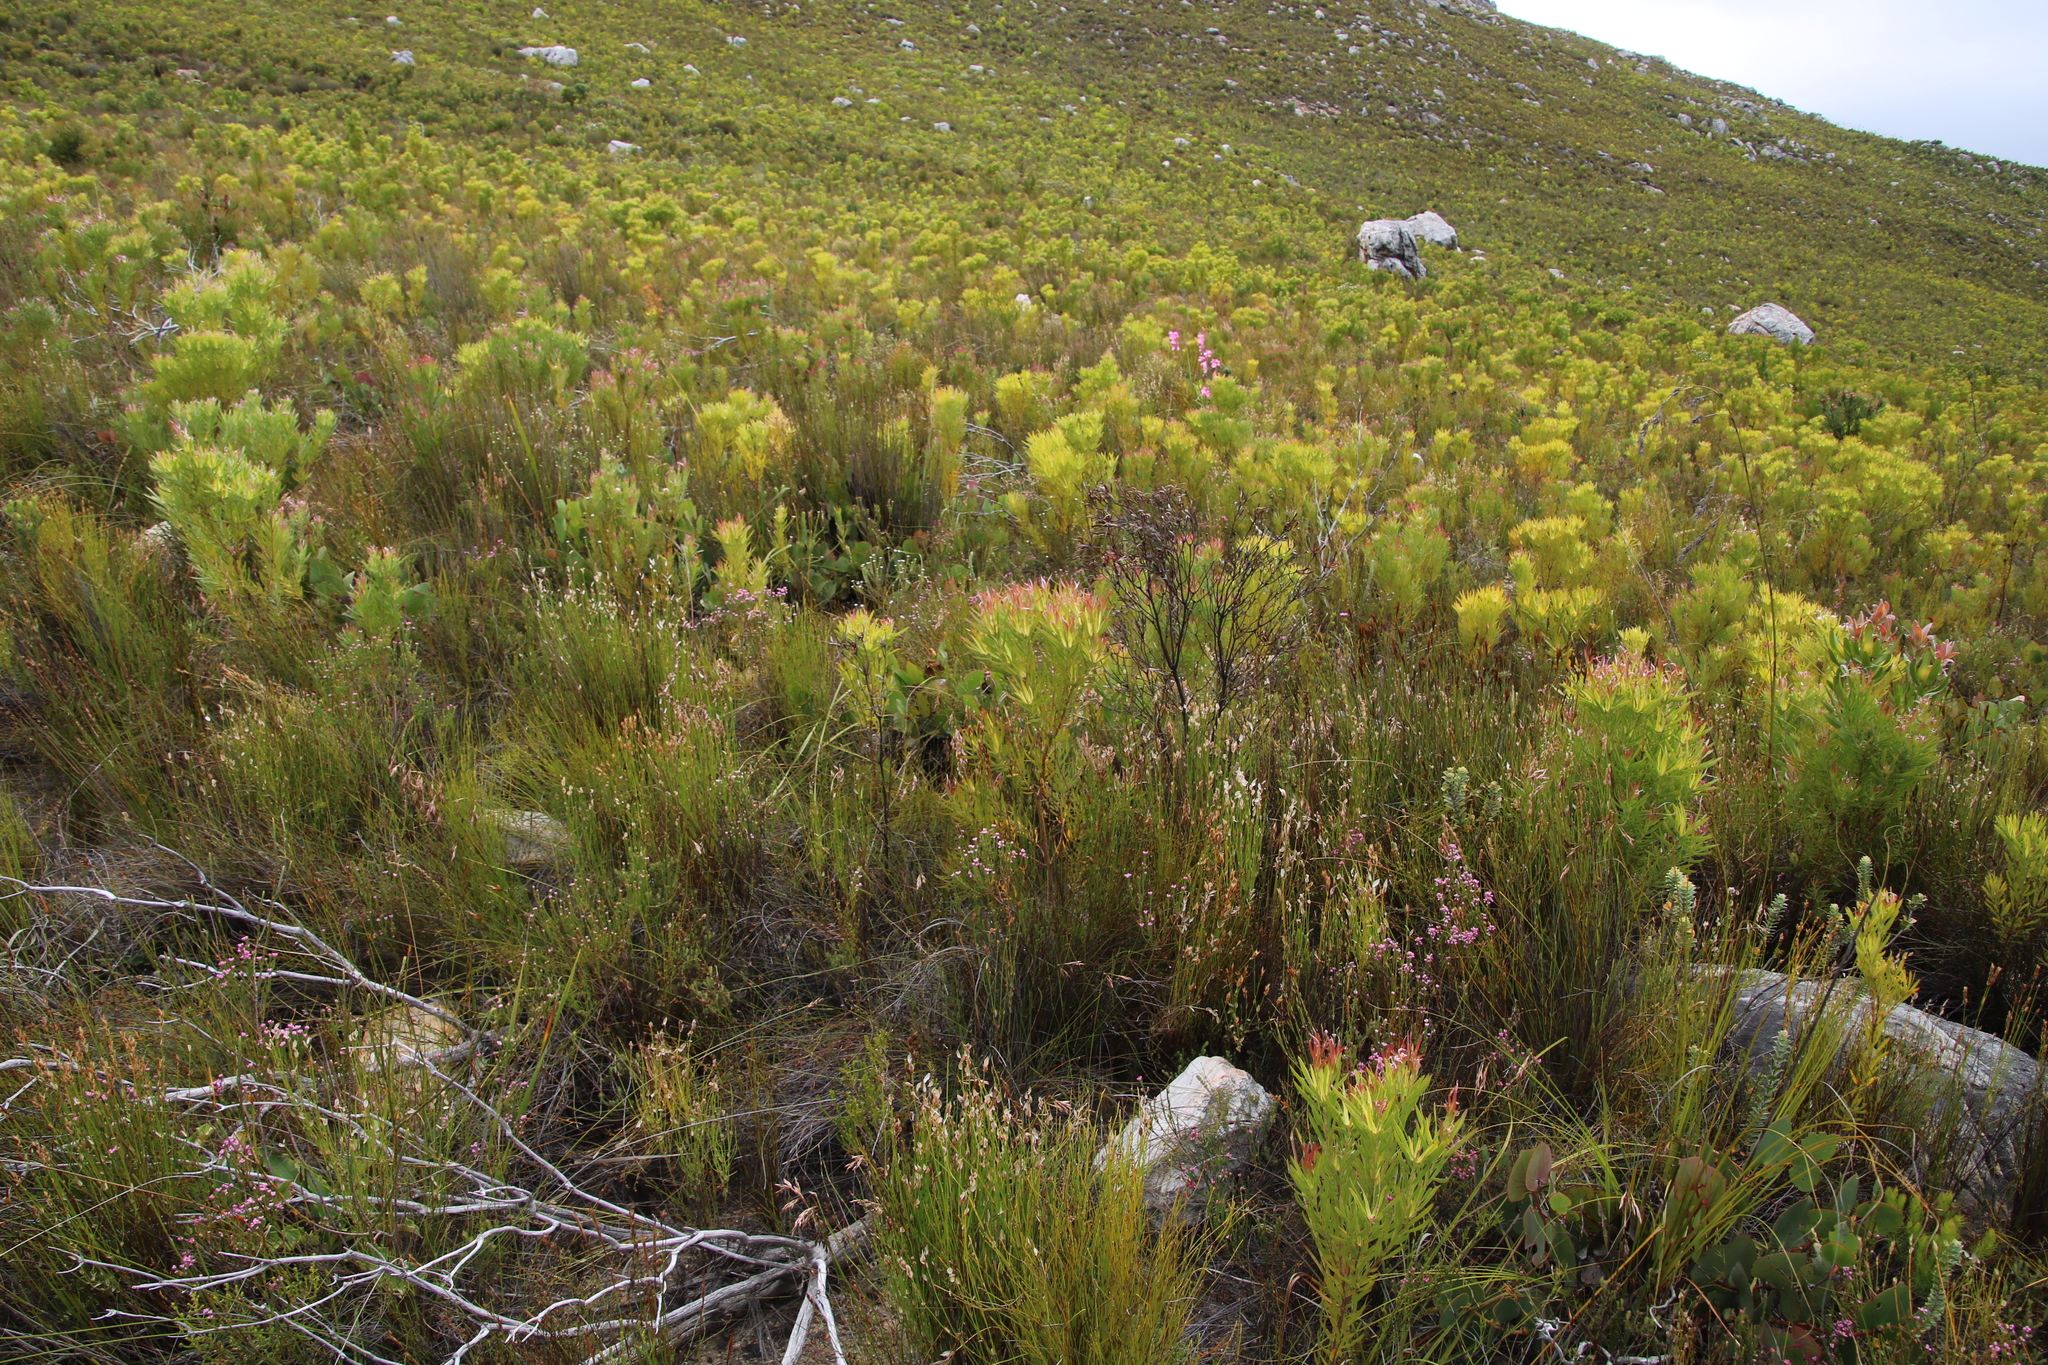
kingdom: Plantae
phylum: Tracheophyta
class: Magnoliopsida
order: Proteales
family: Proteaceae
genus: Leucadendron
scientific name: Leucadendron xanthoconus
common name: Sickle-leaf conebush
